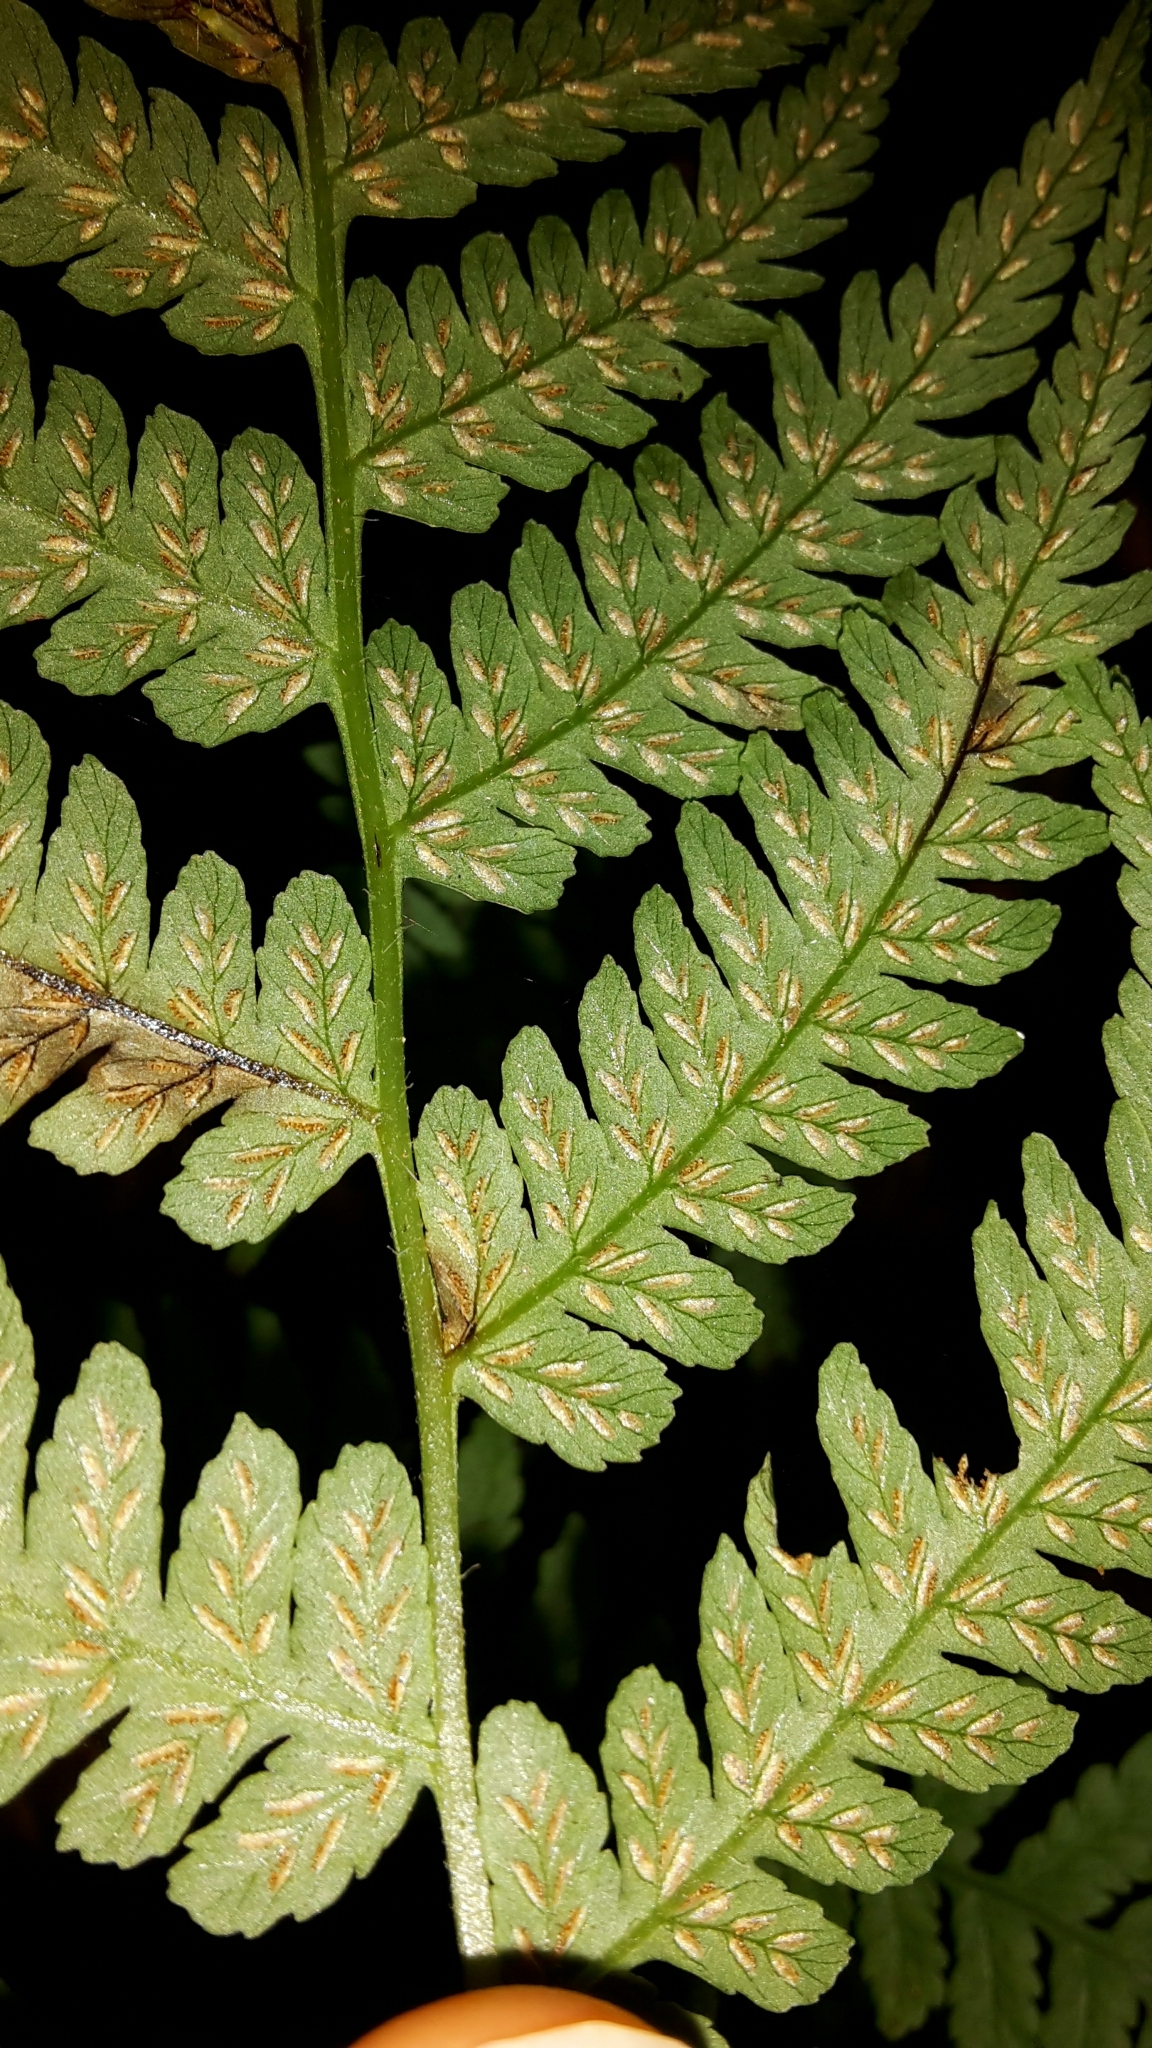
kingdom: Plantae
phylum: Tracheophyta
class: Polypodiopsida
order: Polypodiales
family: Athyriaceae
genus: Deparia
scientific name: Deparia petersenii
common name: Japanese false spleenwort
